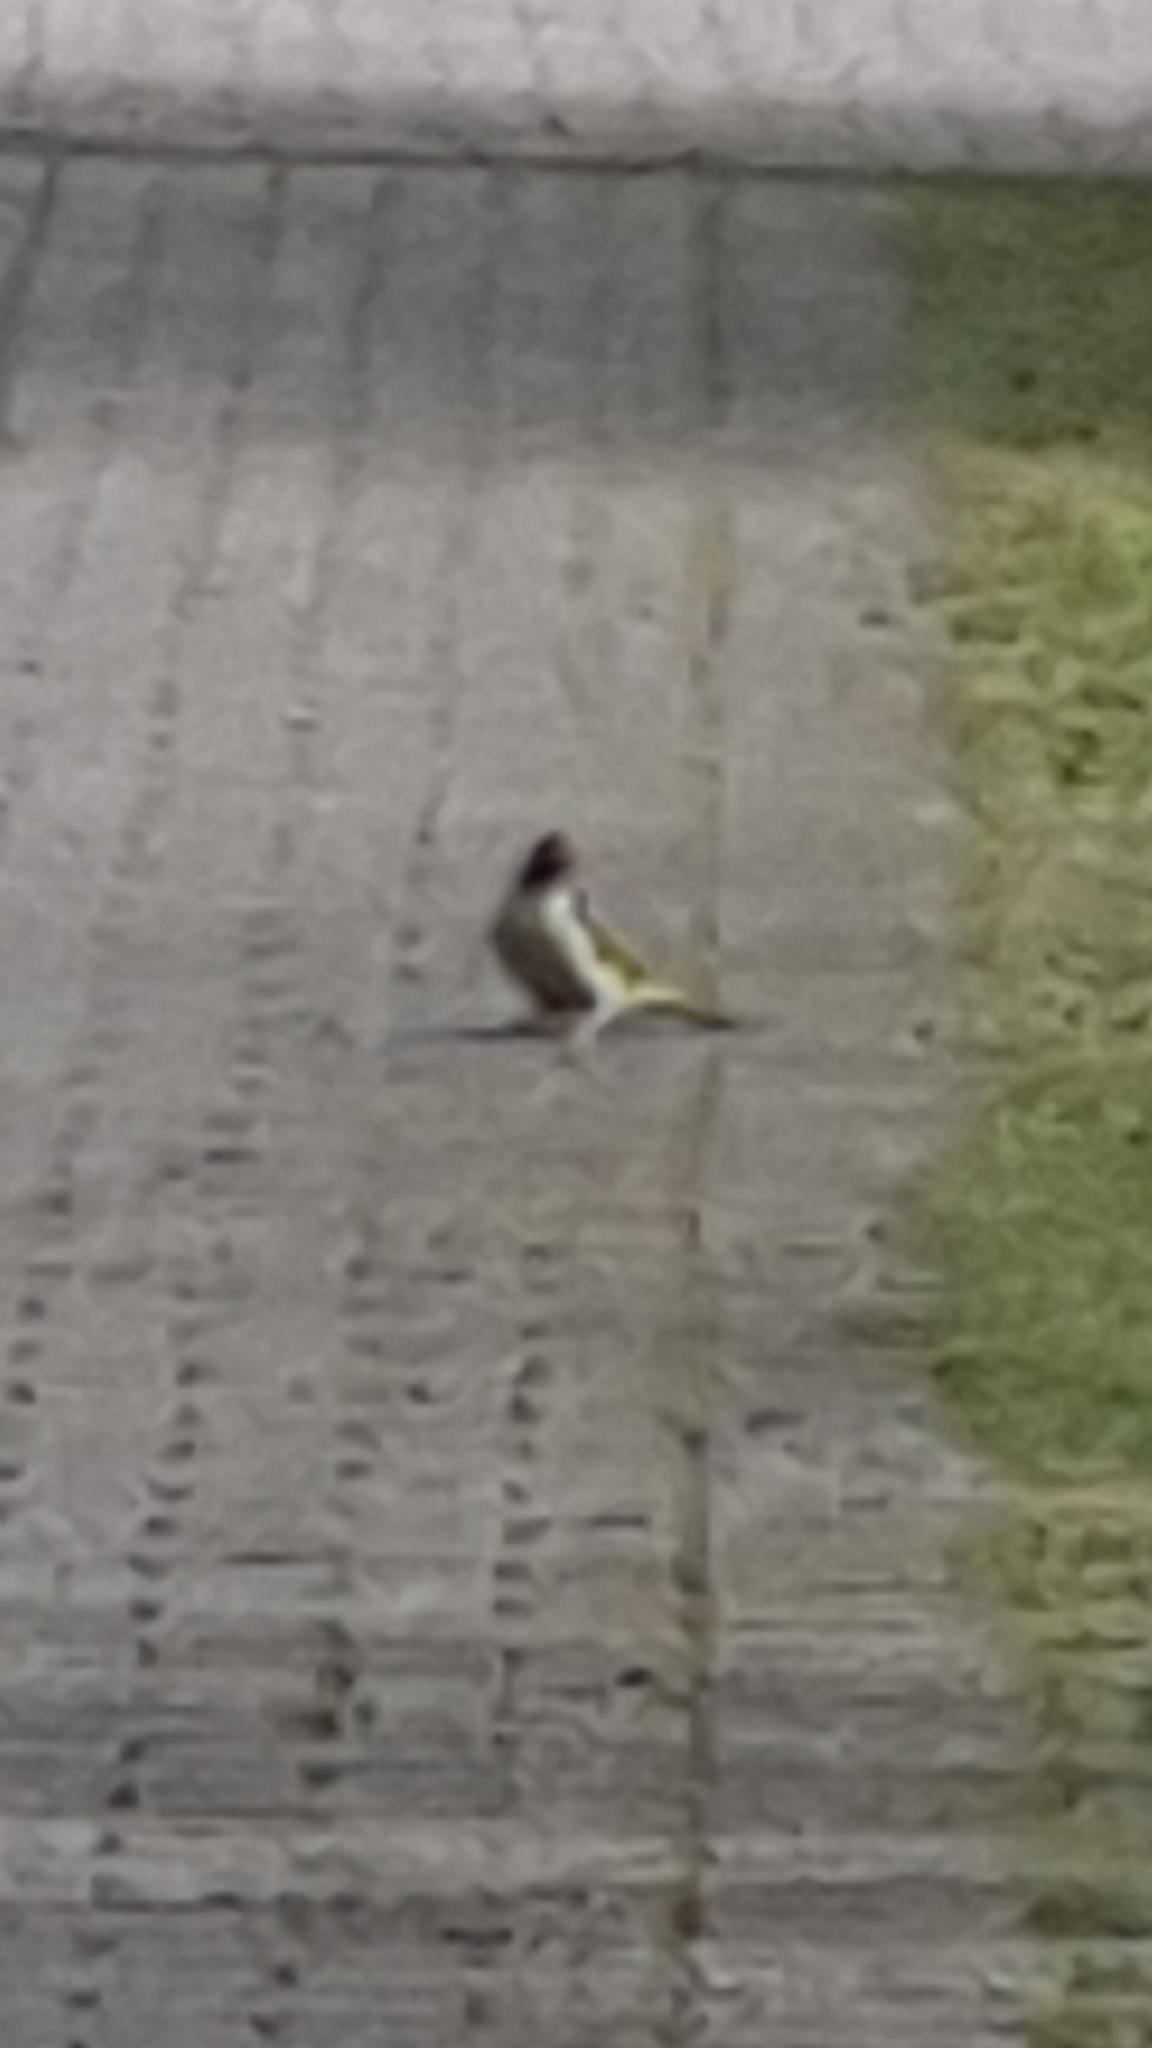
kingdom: Animalia
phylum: Chordata
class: Aves
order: Piciformes
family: Picidae
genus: Picus
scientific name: Picus viridis
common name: European green woodpecker
